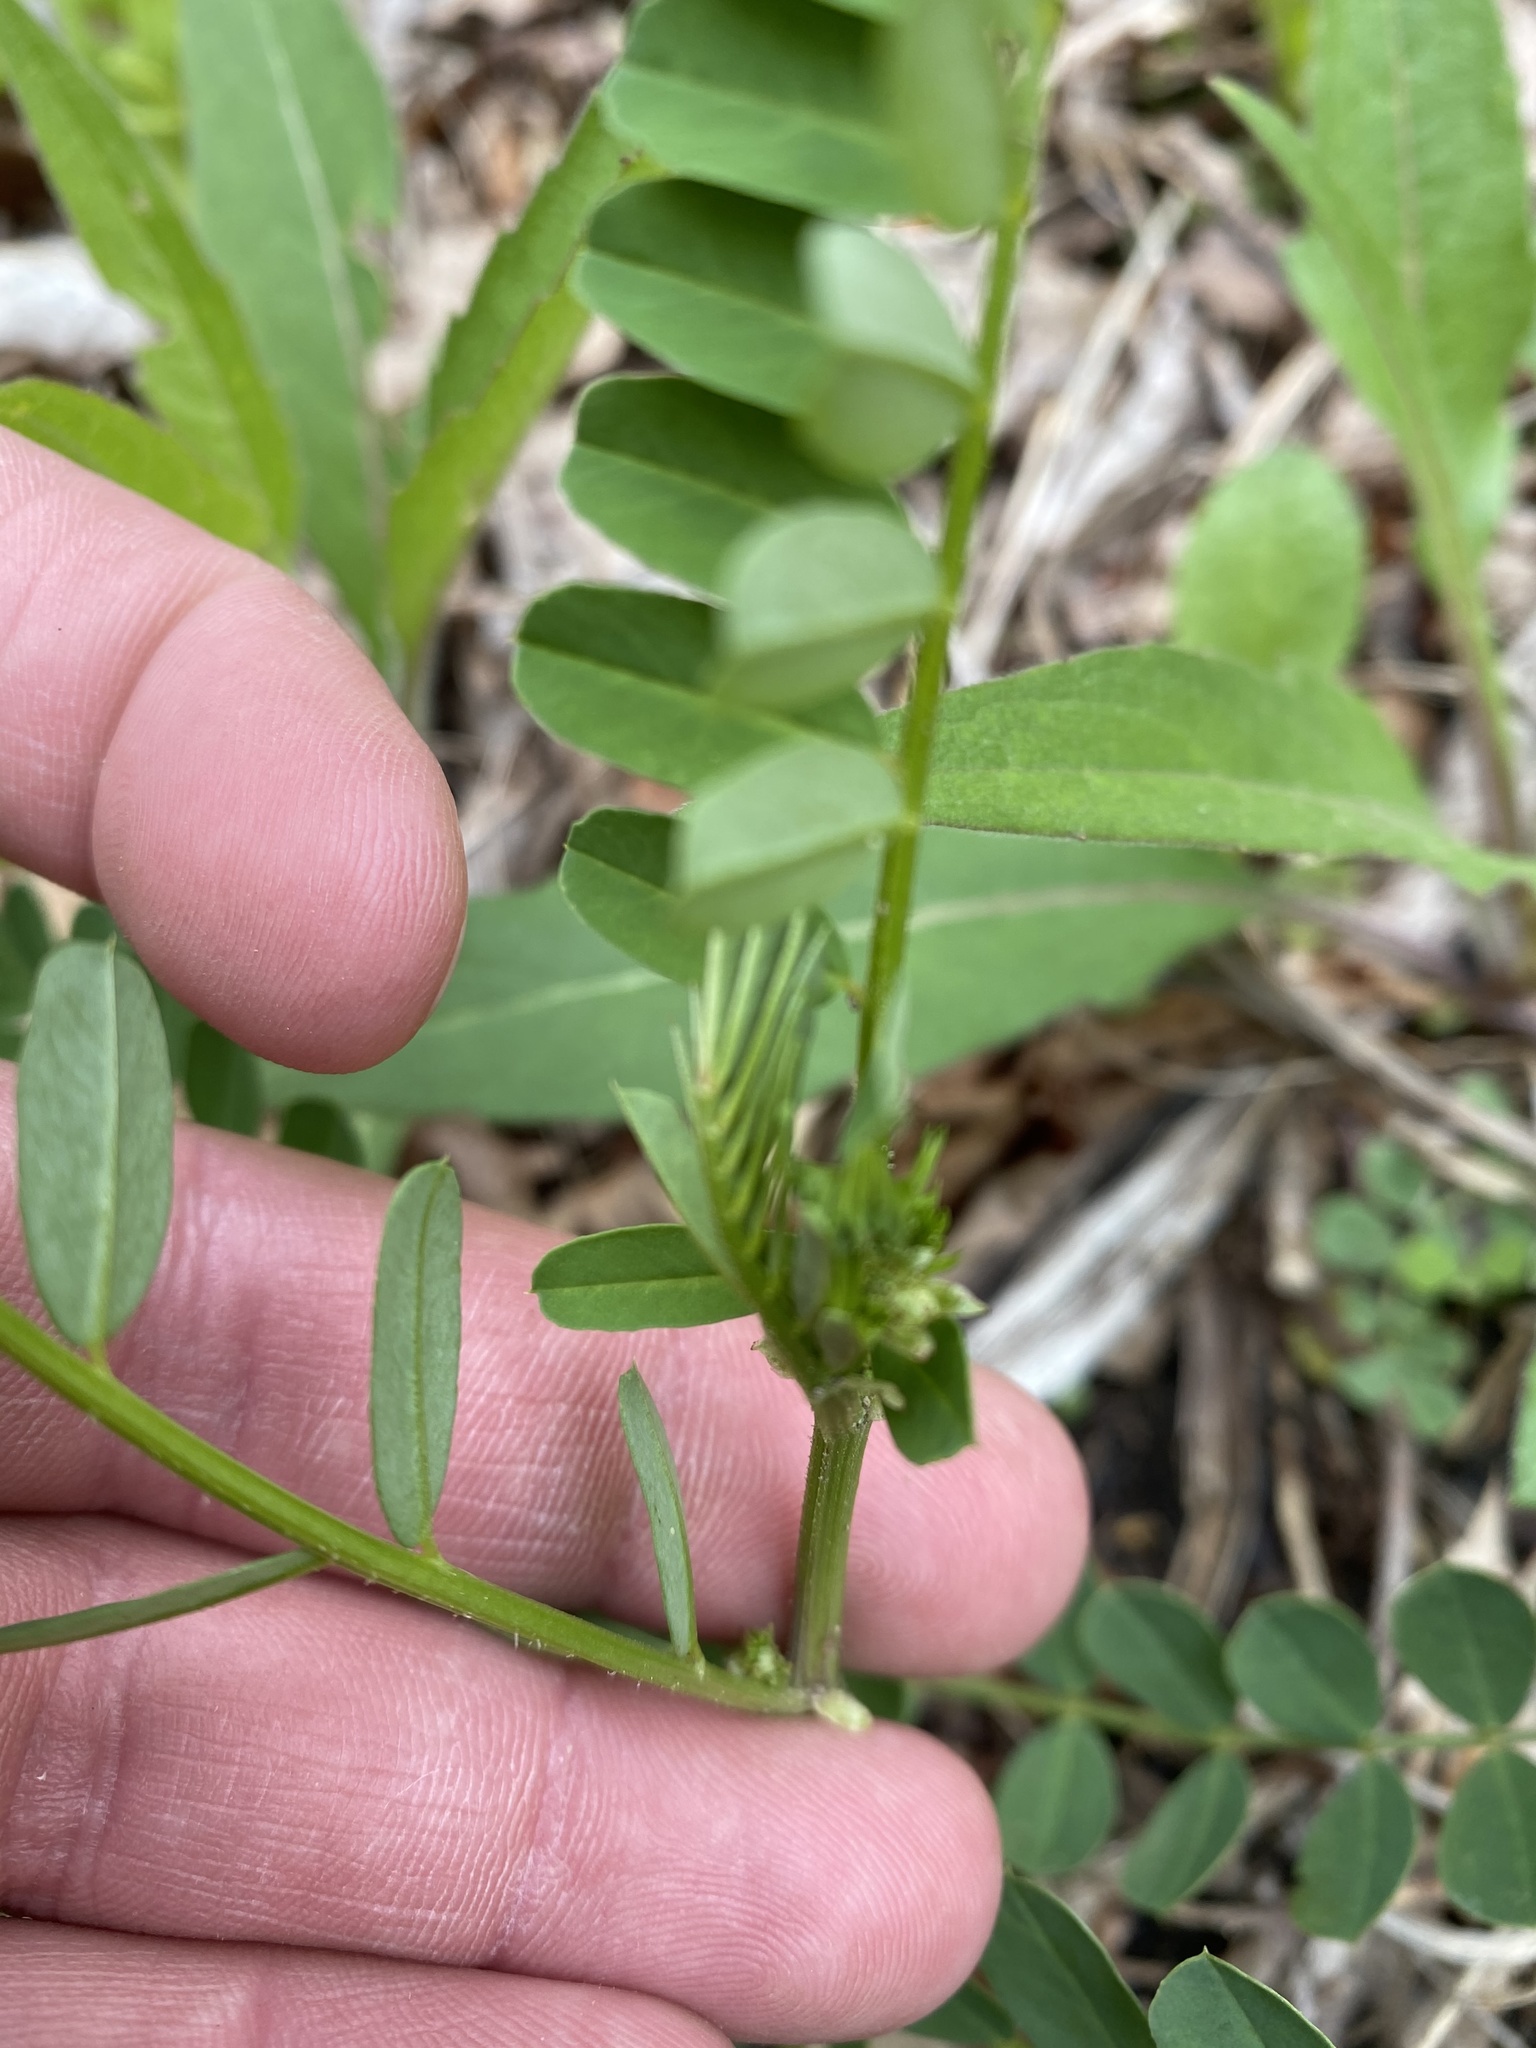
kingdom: Plantae
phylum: Tracheophyta
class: Magnoliopsida
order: Fabales
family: Fabaceae
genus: Coronilla
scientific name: Coronilla varia
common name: Crownvetch
